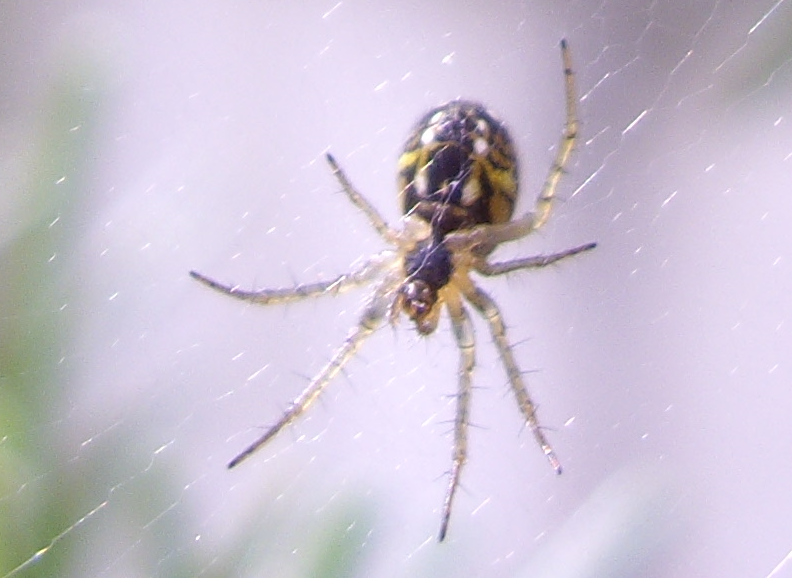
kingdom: Animalia
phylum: Arthropoda
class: Arachnida
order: Araneae
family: Araneidae
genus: Mangora
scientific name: Mangora acalypha
